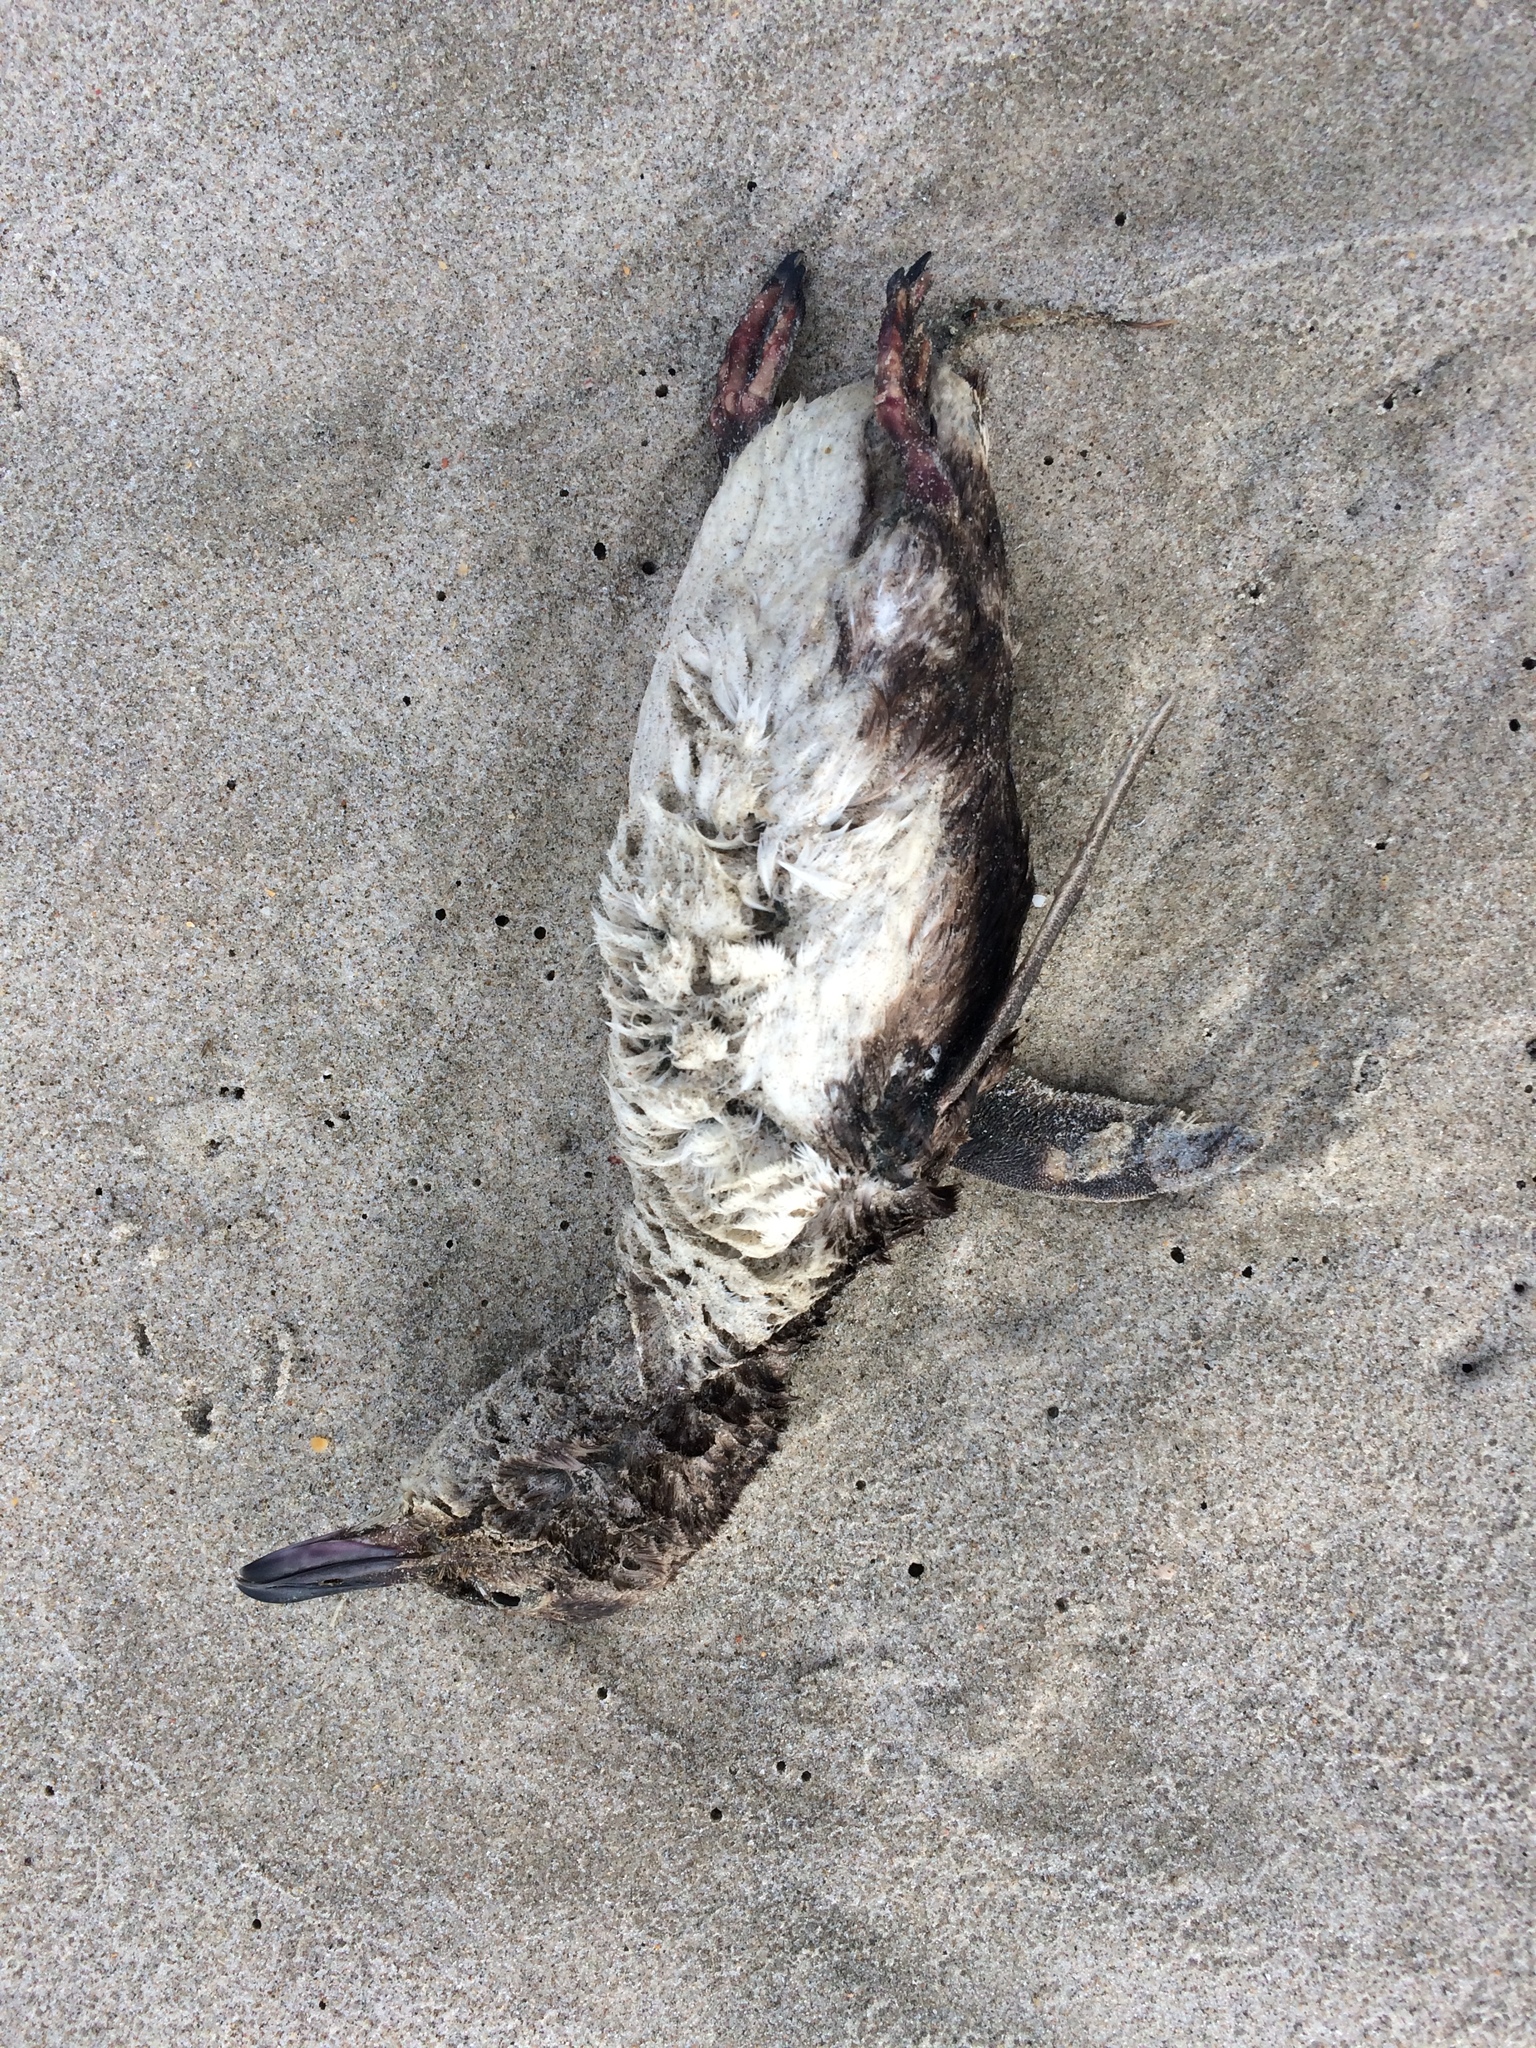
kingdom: Animalia
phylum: Chordata
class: Aves
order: Sphenisciformes
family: Spheniscidae
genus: Eudyptula
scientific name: Eudyptula minor
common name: Little penguin
